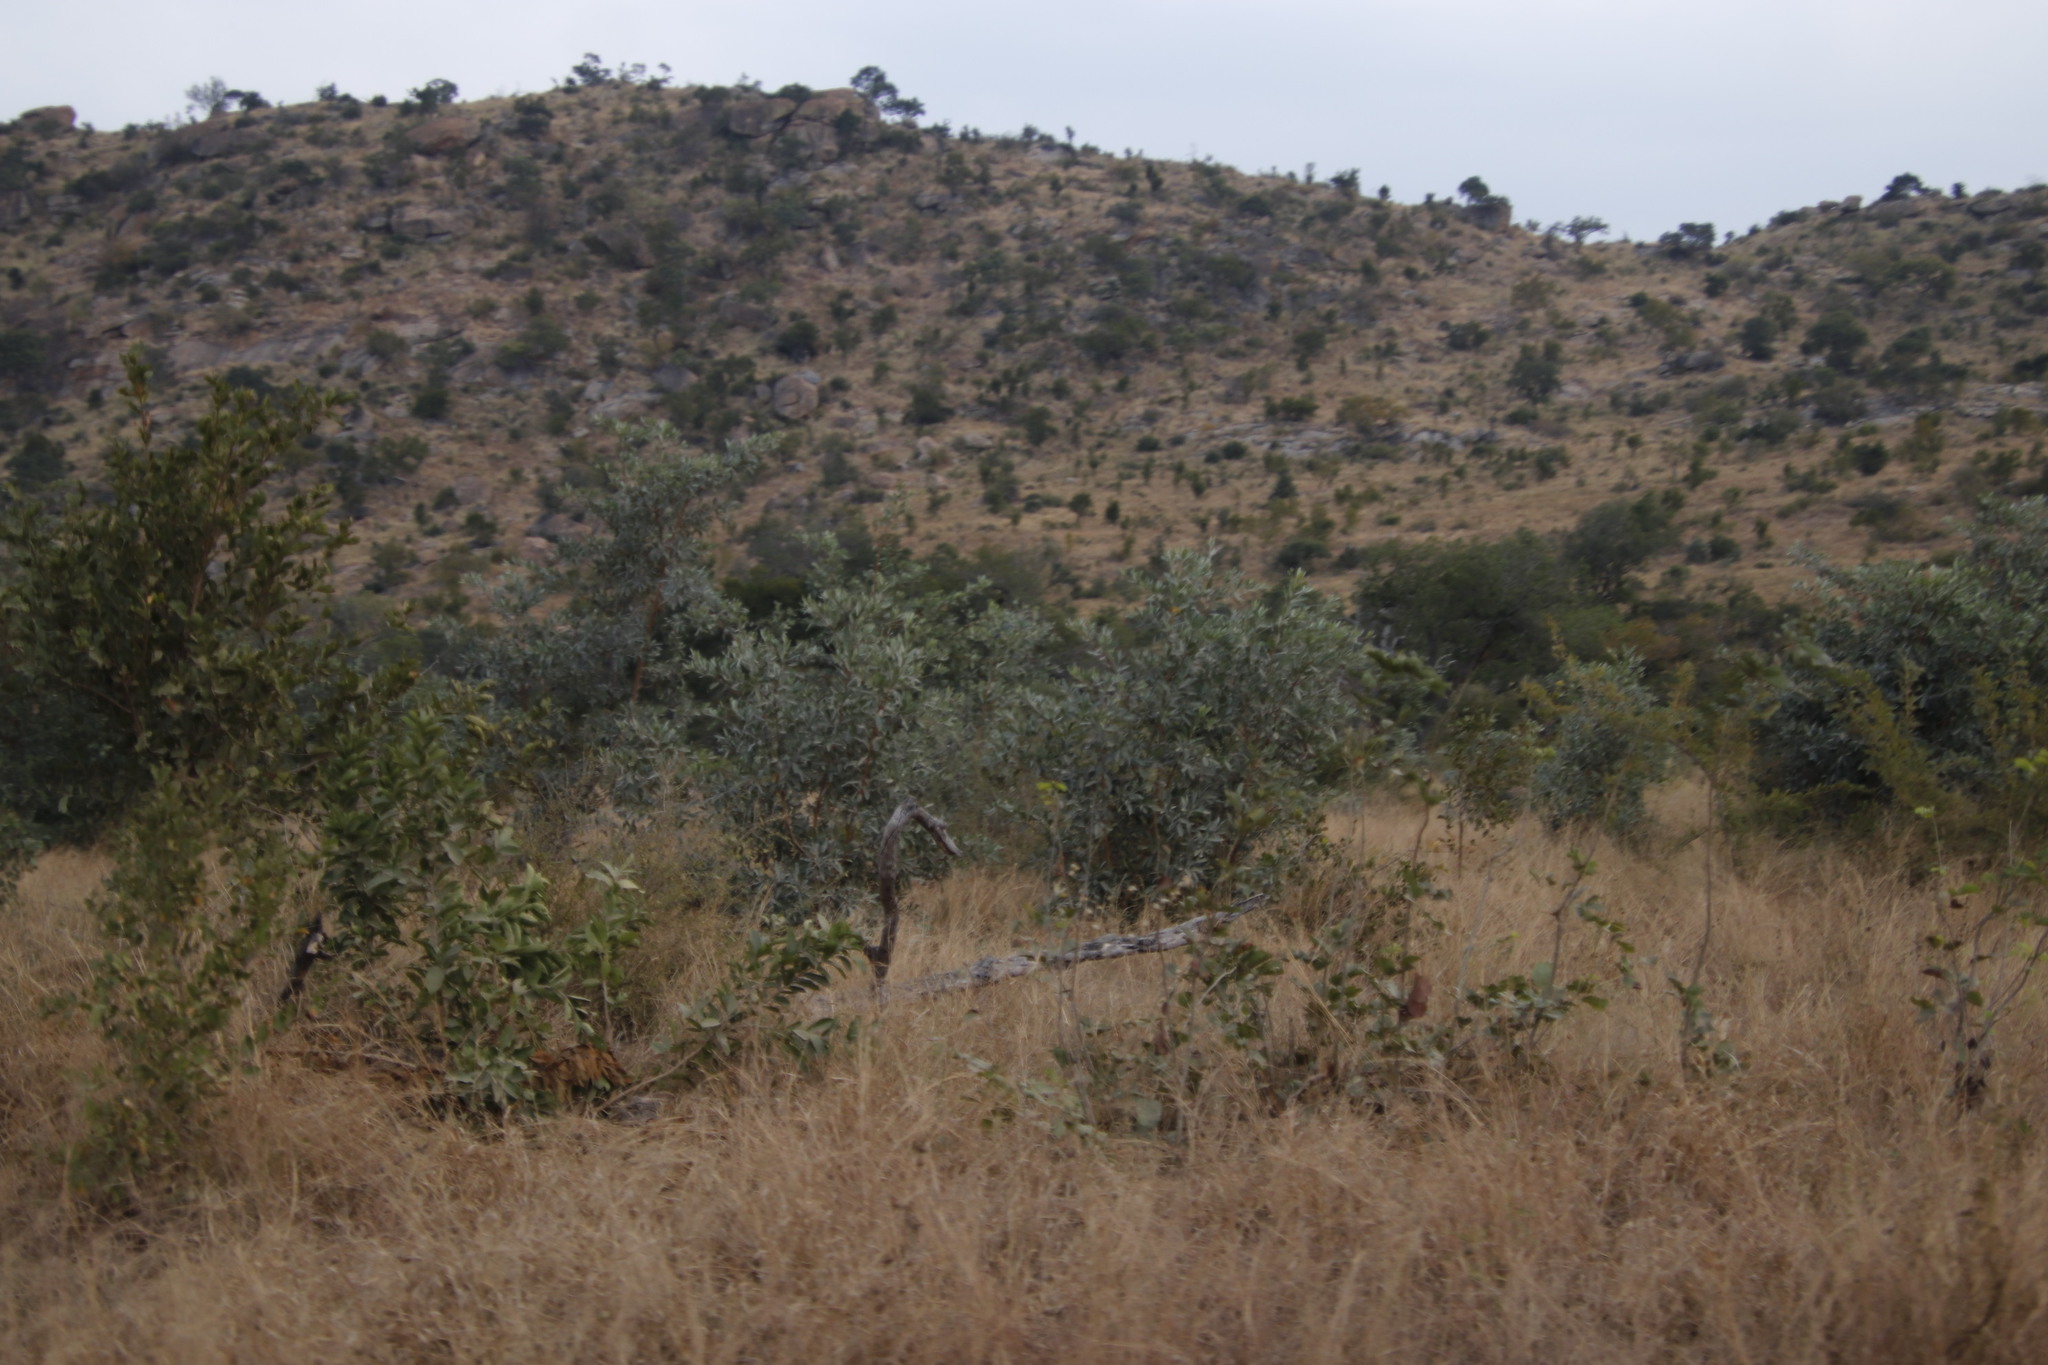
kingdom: Plantae
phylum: Tracheophyta
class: Magnoliopsida
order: Myrtales
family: Combretaceae
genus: Terminalia
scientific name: Terminalia sericea
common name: Clusterleaf
